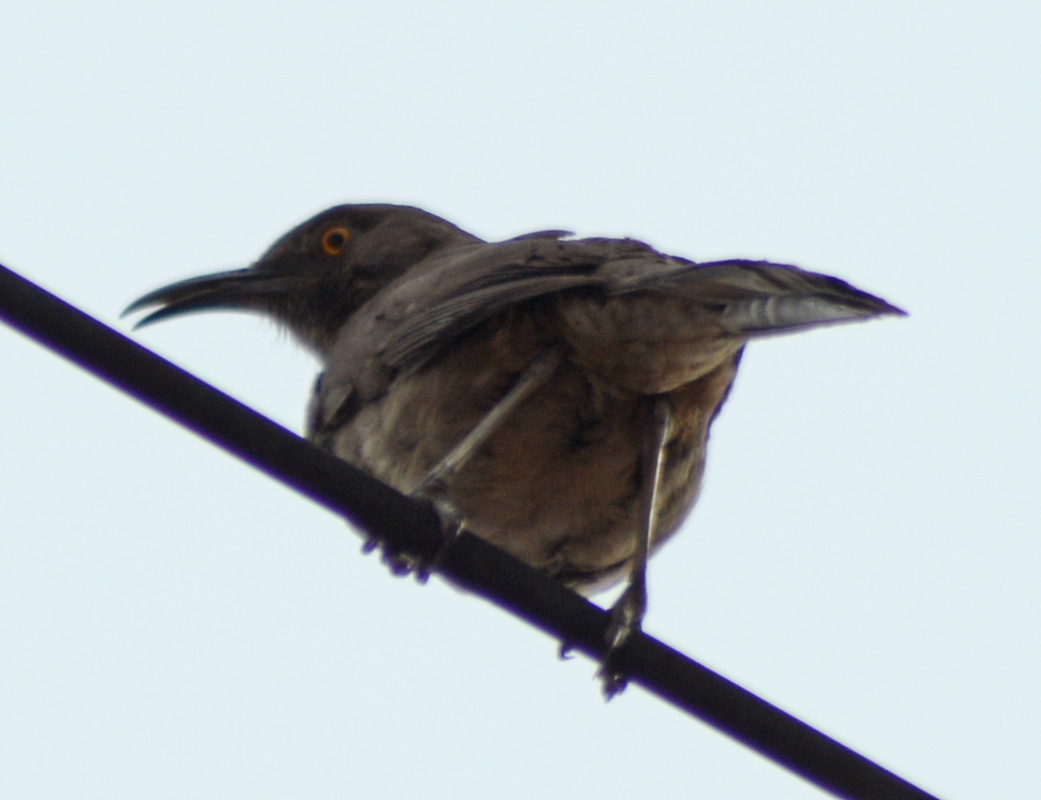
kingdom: Animalia
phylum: Chordata
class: Aves
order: Passeriformes
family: Mimidae
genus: Toxostoma
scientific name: Toxostoma curvirostre
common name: Curve-billed thrasher
